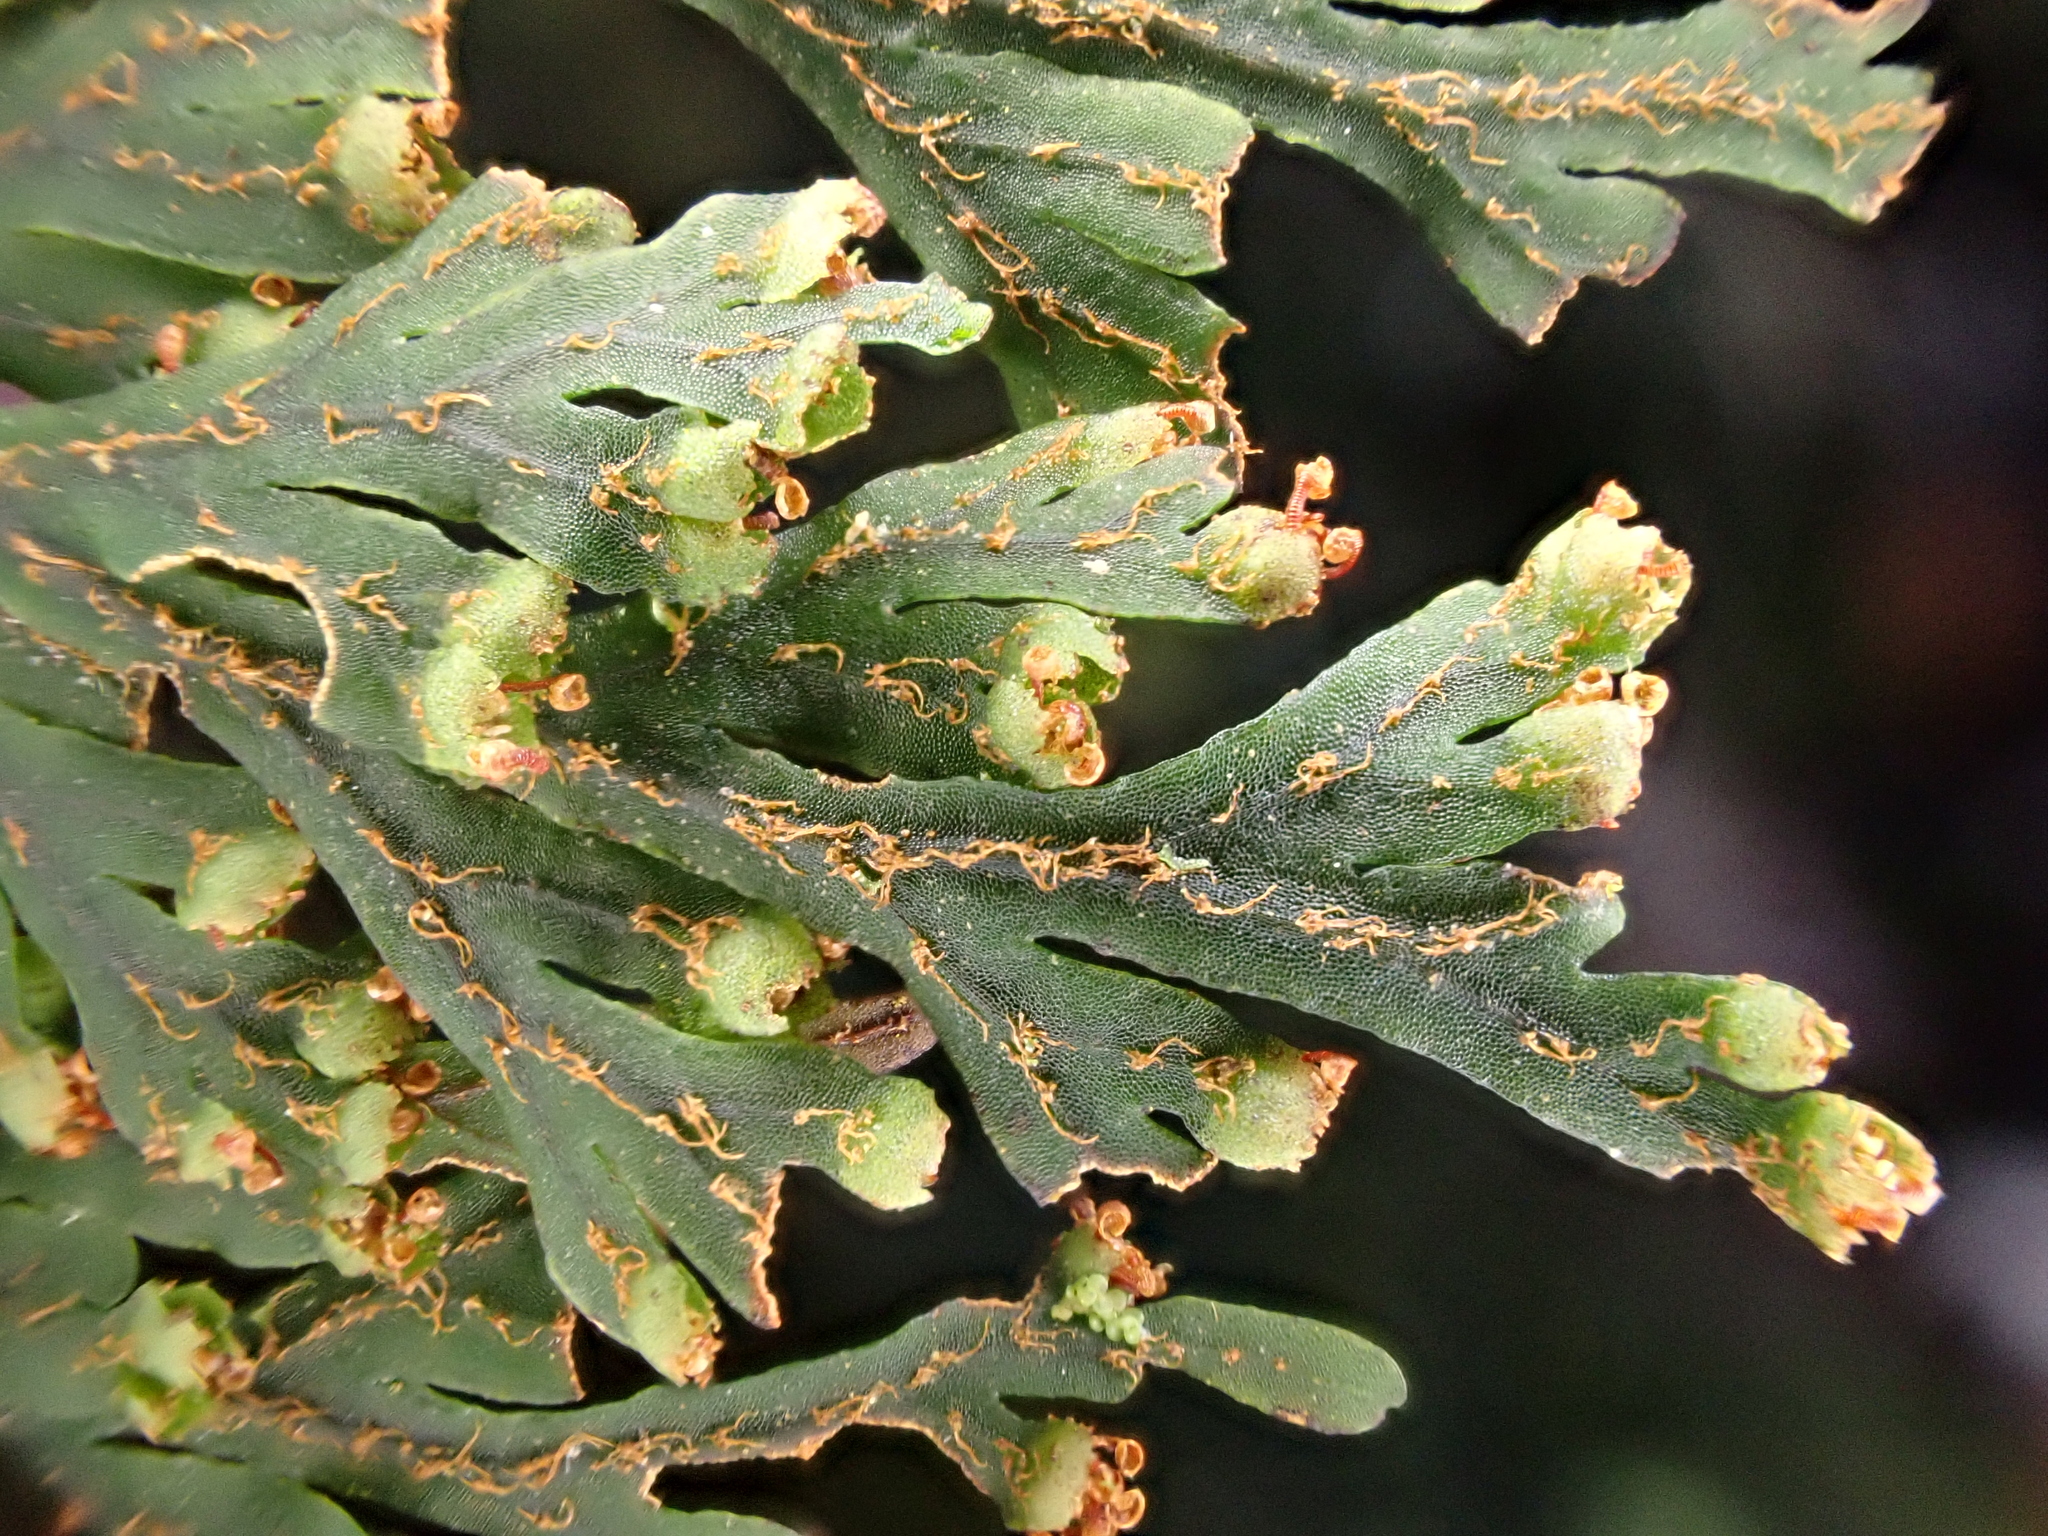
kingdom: Plantae
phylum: Tracheophyta
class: Polypodiopsida
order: Hymenophyllales
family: Hymenophyllaceae
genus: Hymenophyllum
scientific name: Hymenophyllum scabrum
